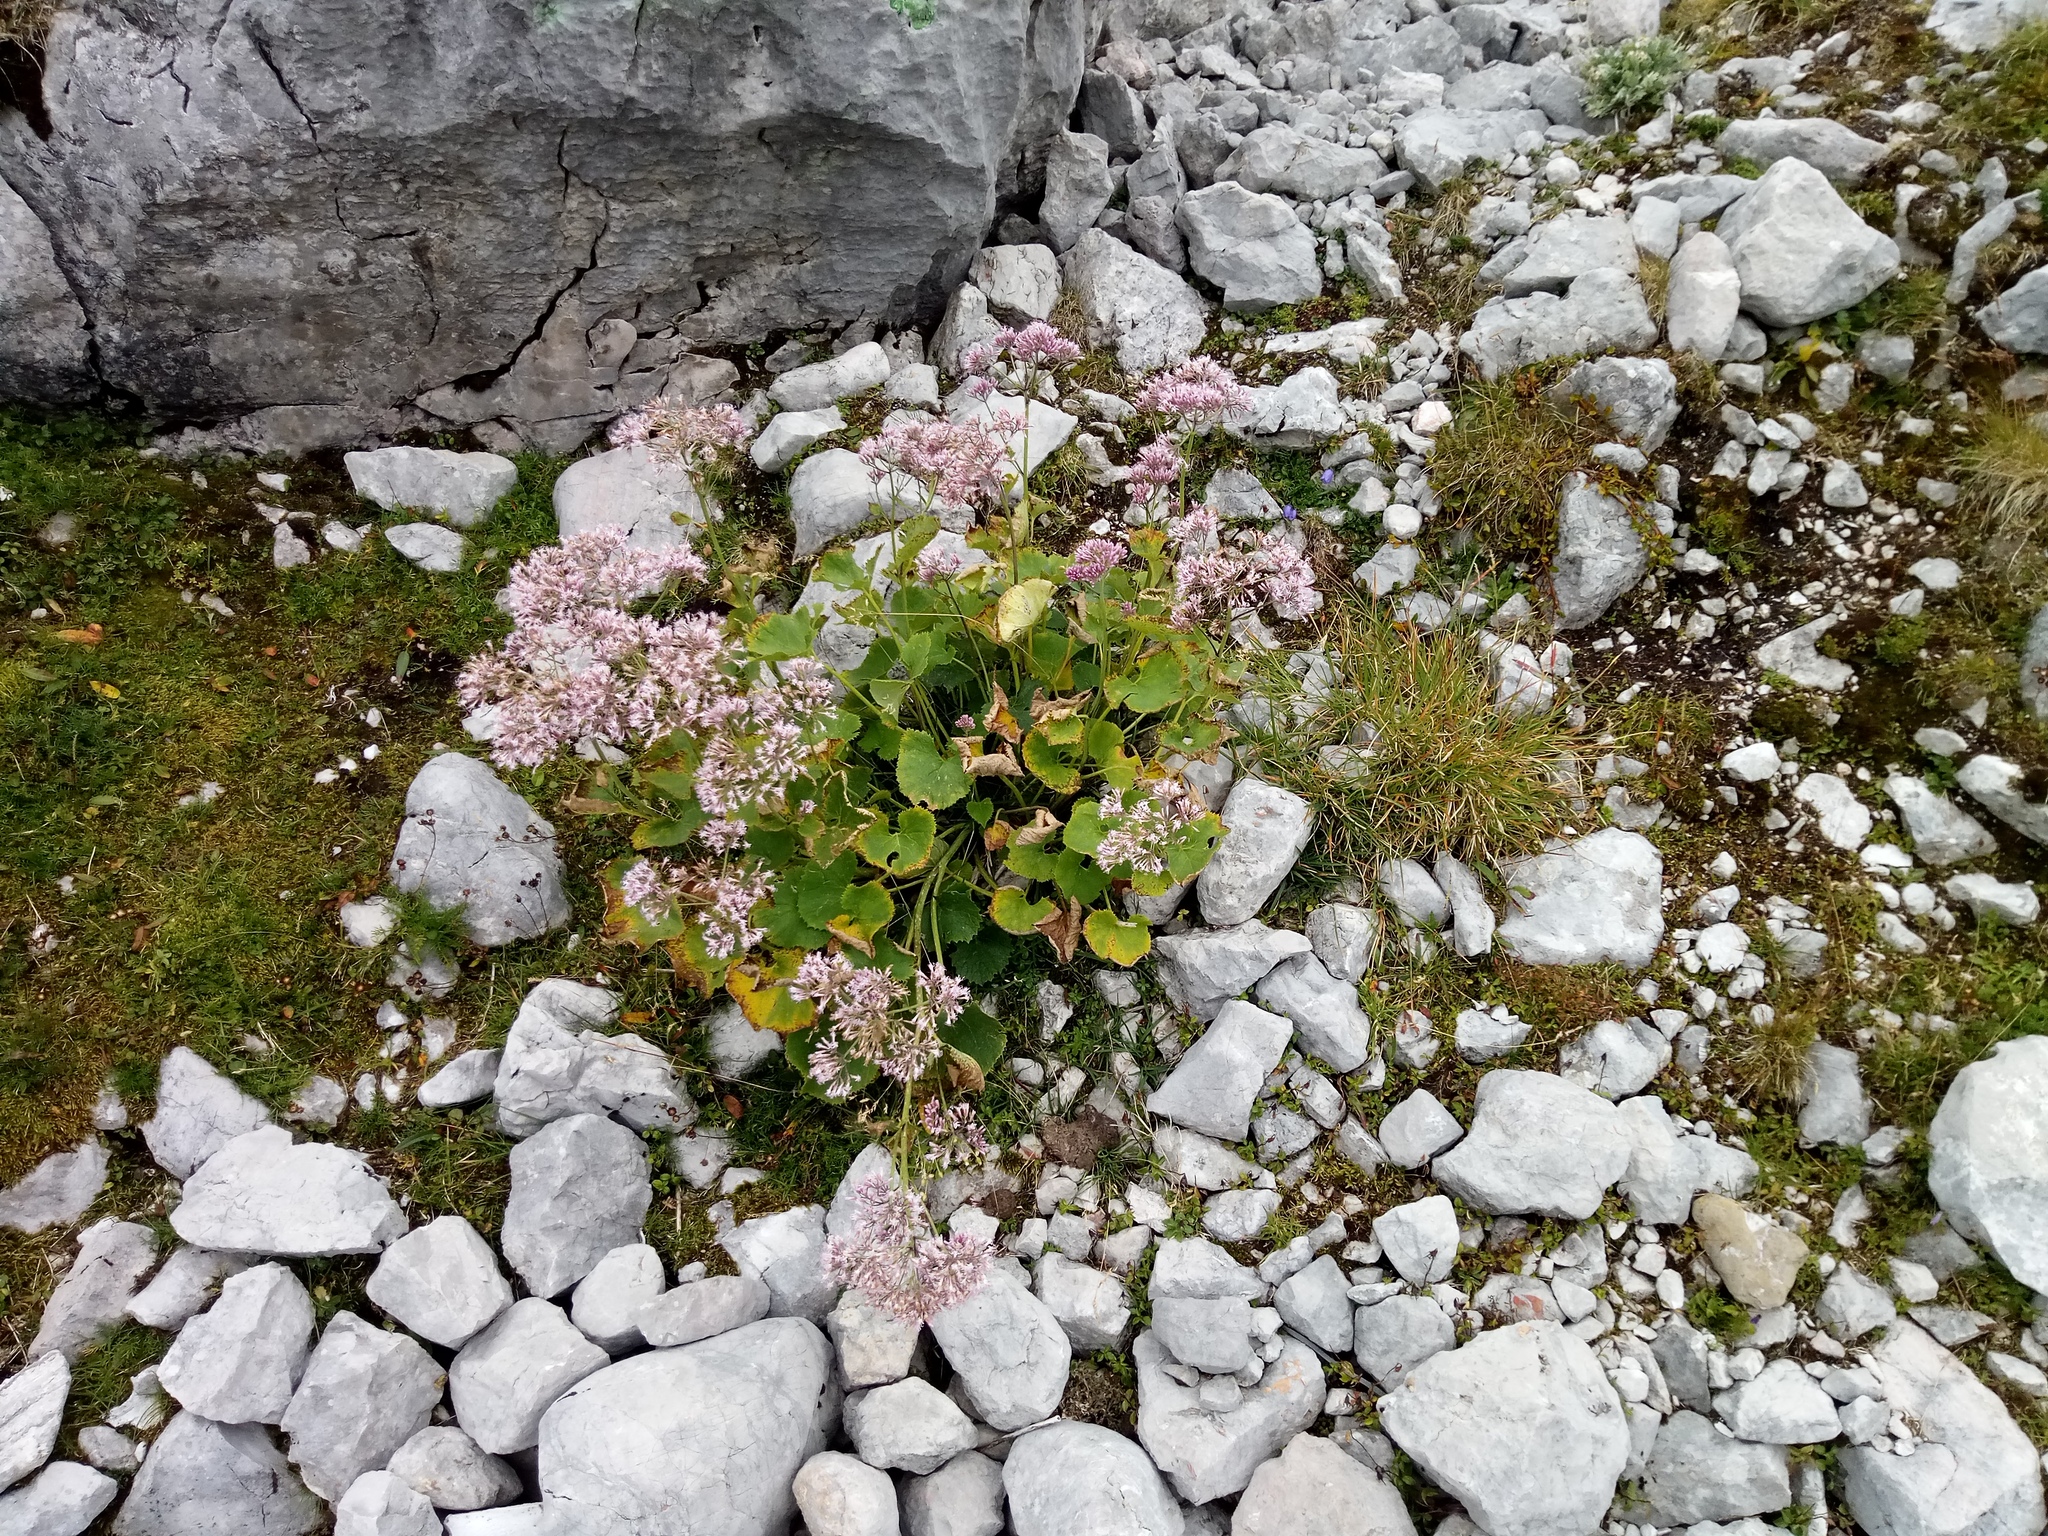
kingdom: Plantae
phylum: Tracheophyta
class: Magnoliopsida
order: Asterales
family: Asteraceae
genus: Adenostyles
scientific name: Adenostyles alpina
